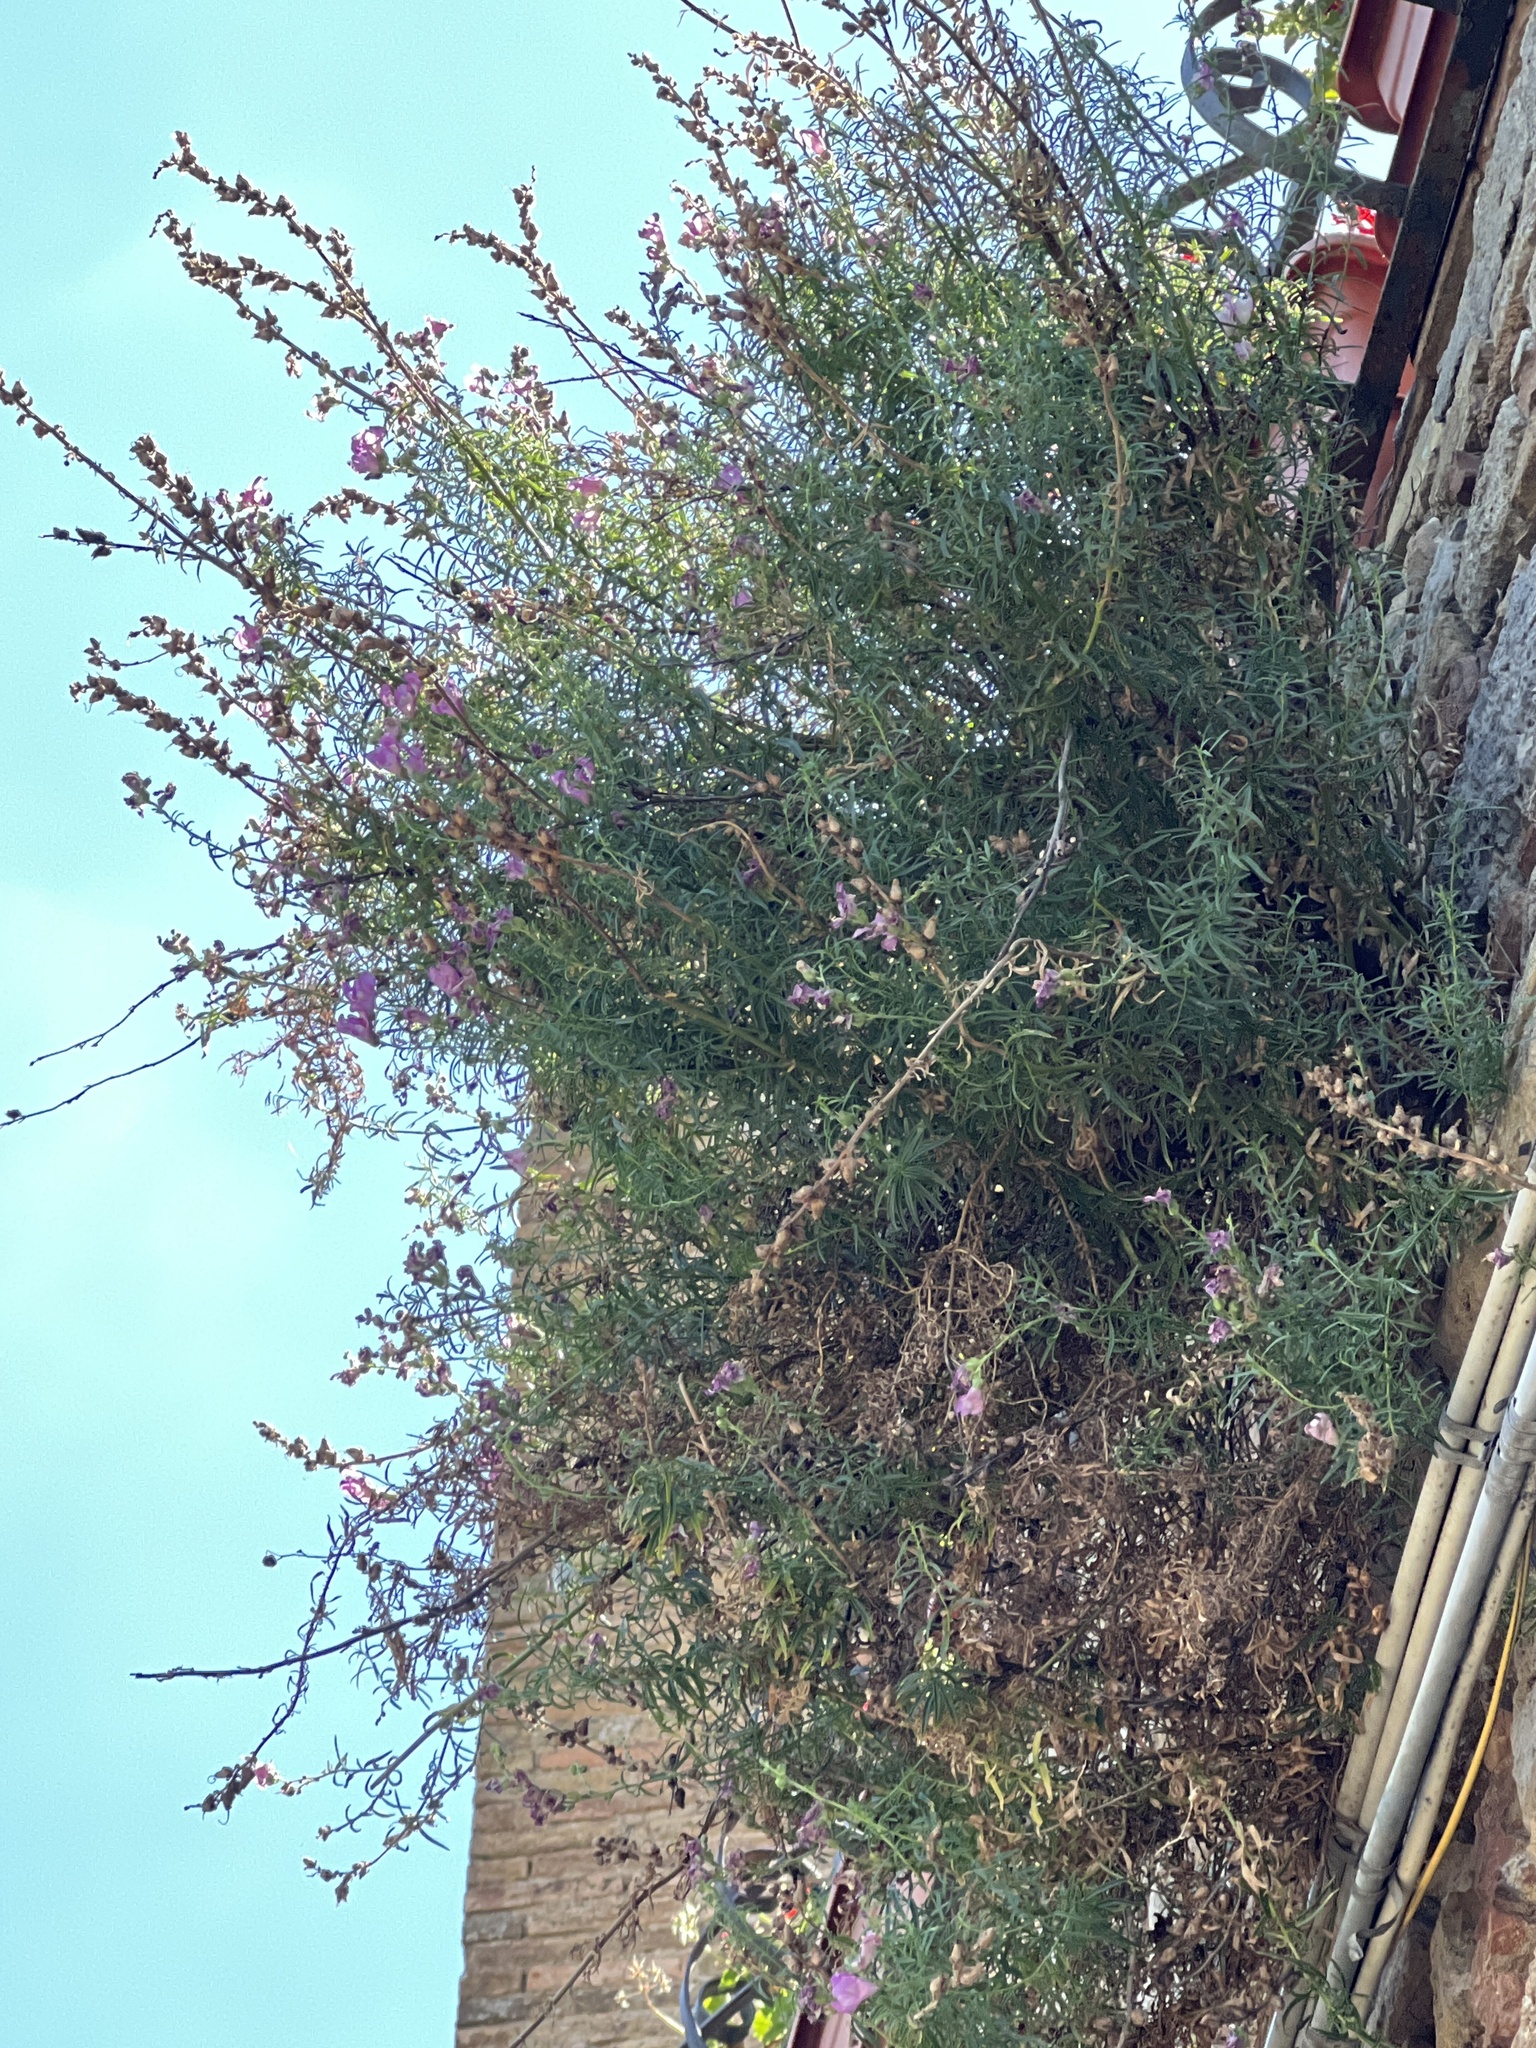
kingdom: Plantae
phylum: Tracheophyta
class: Magnoliopsida
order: Lamiales
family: Plantaginaceae
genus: Antirrhinum
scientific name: Antirrhinum tortuosum
